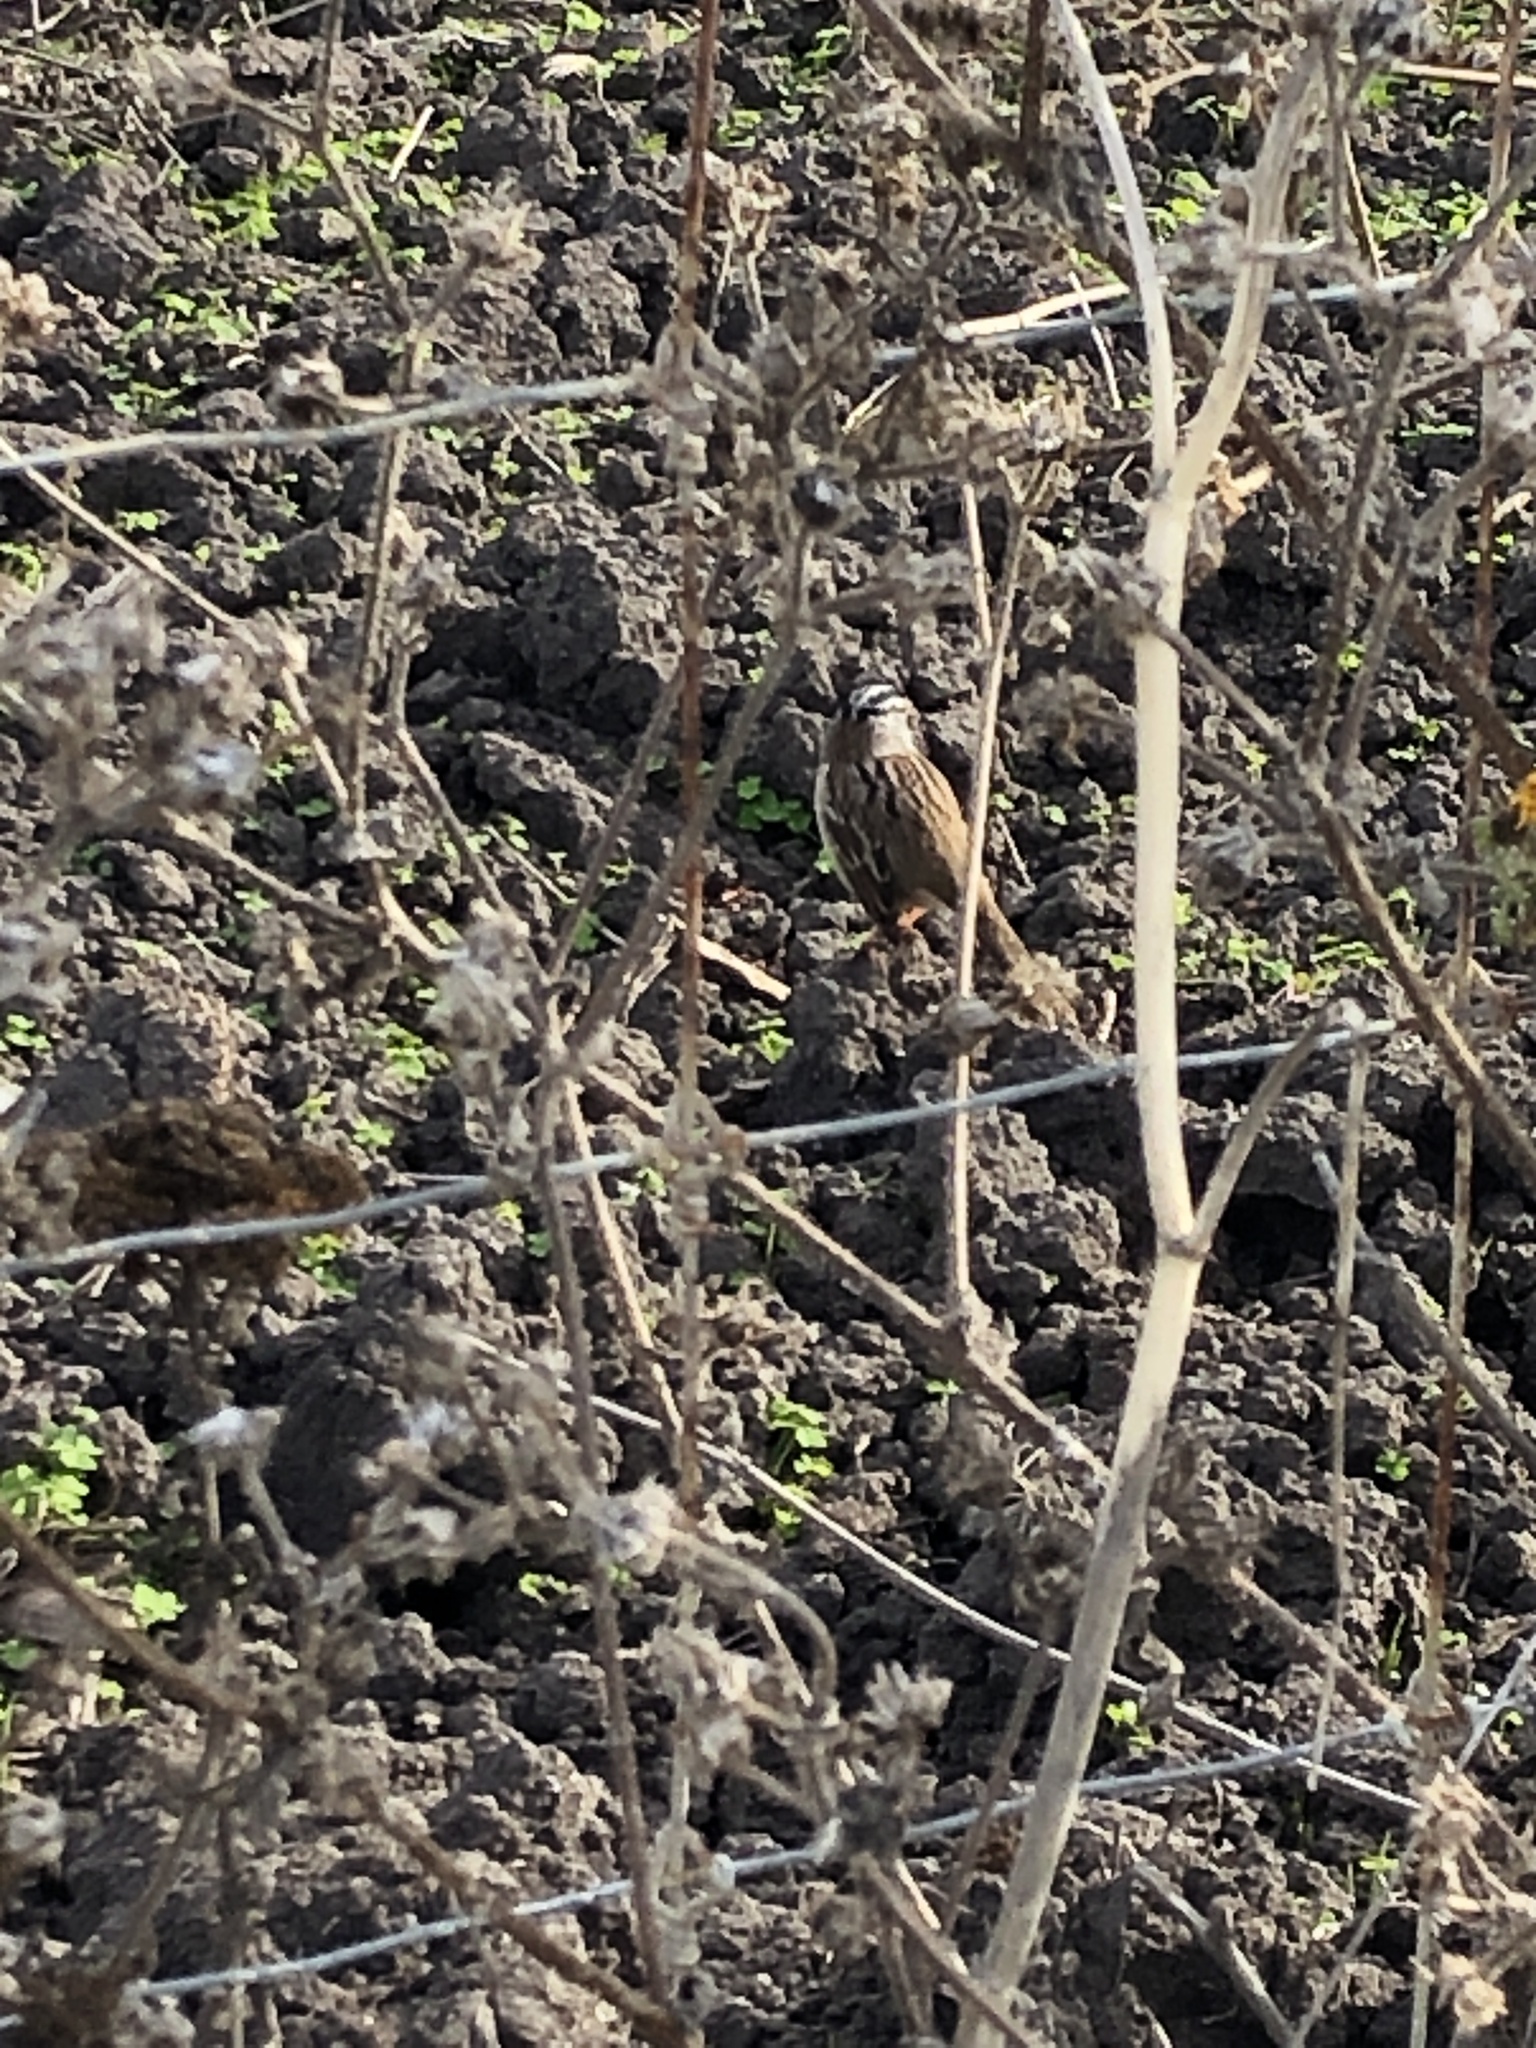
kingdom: Animalia
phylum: Chordata
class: Aves
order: Passeriformes
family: Passerellidae
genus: Zonotrichia
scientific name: Zonotrichia leucophrys
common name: White-crowned sparrow
